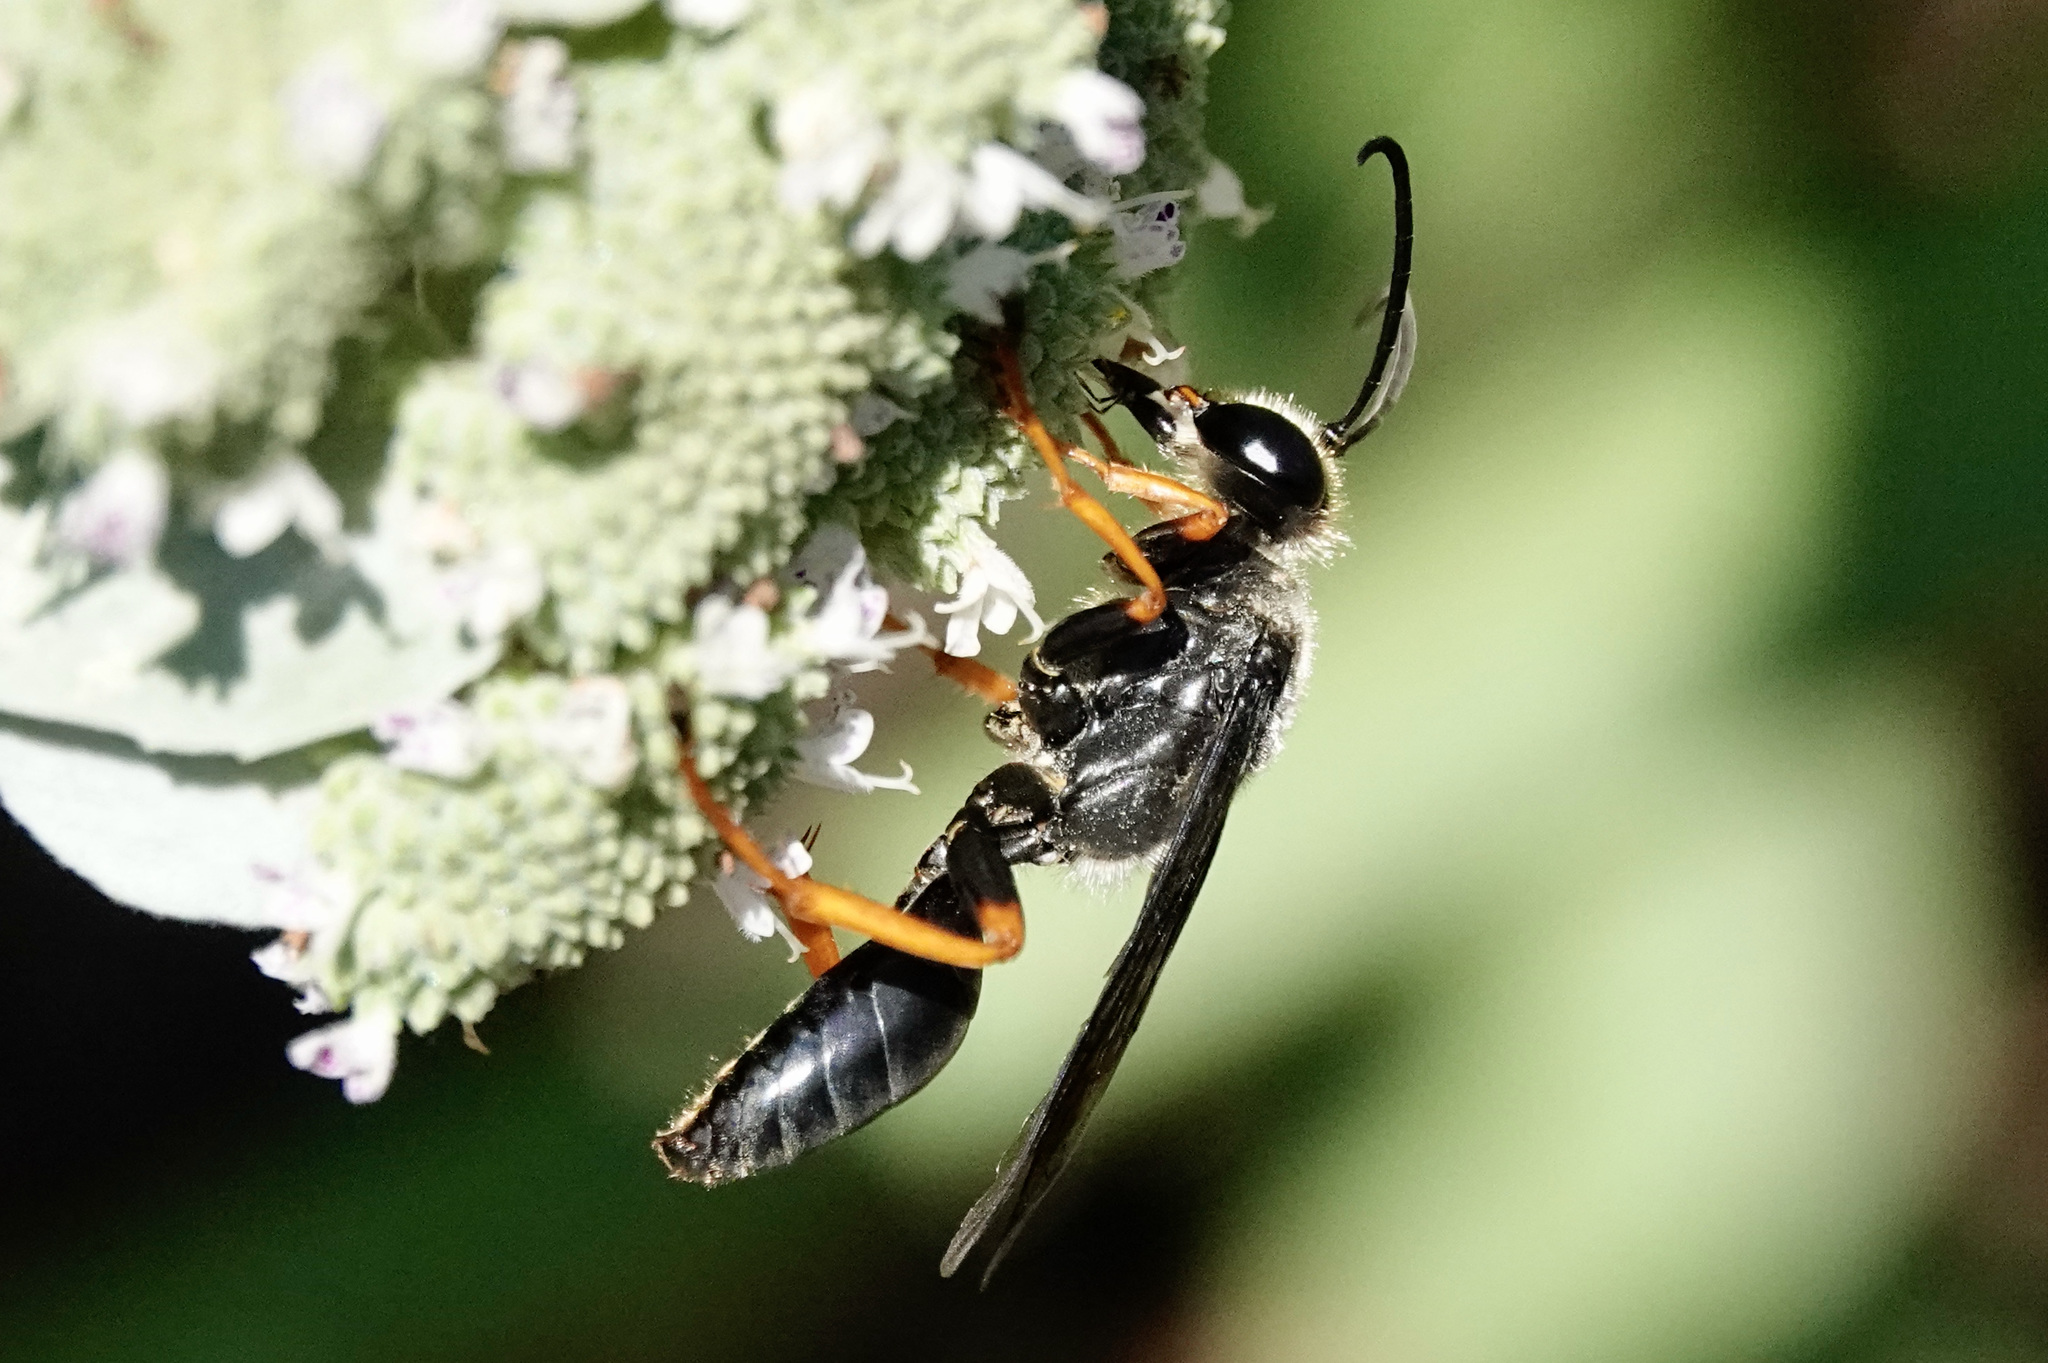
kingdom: Animalia
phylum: Arthropoda
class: Insecta
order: Hymenoptera
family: Sphecidae
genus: Sphex
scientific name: Sphex nudus
